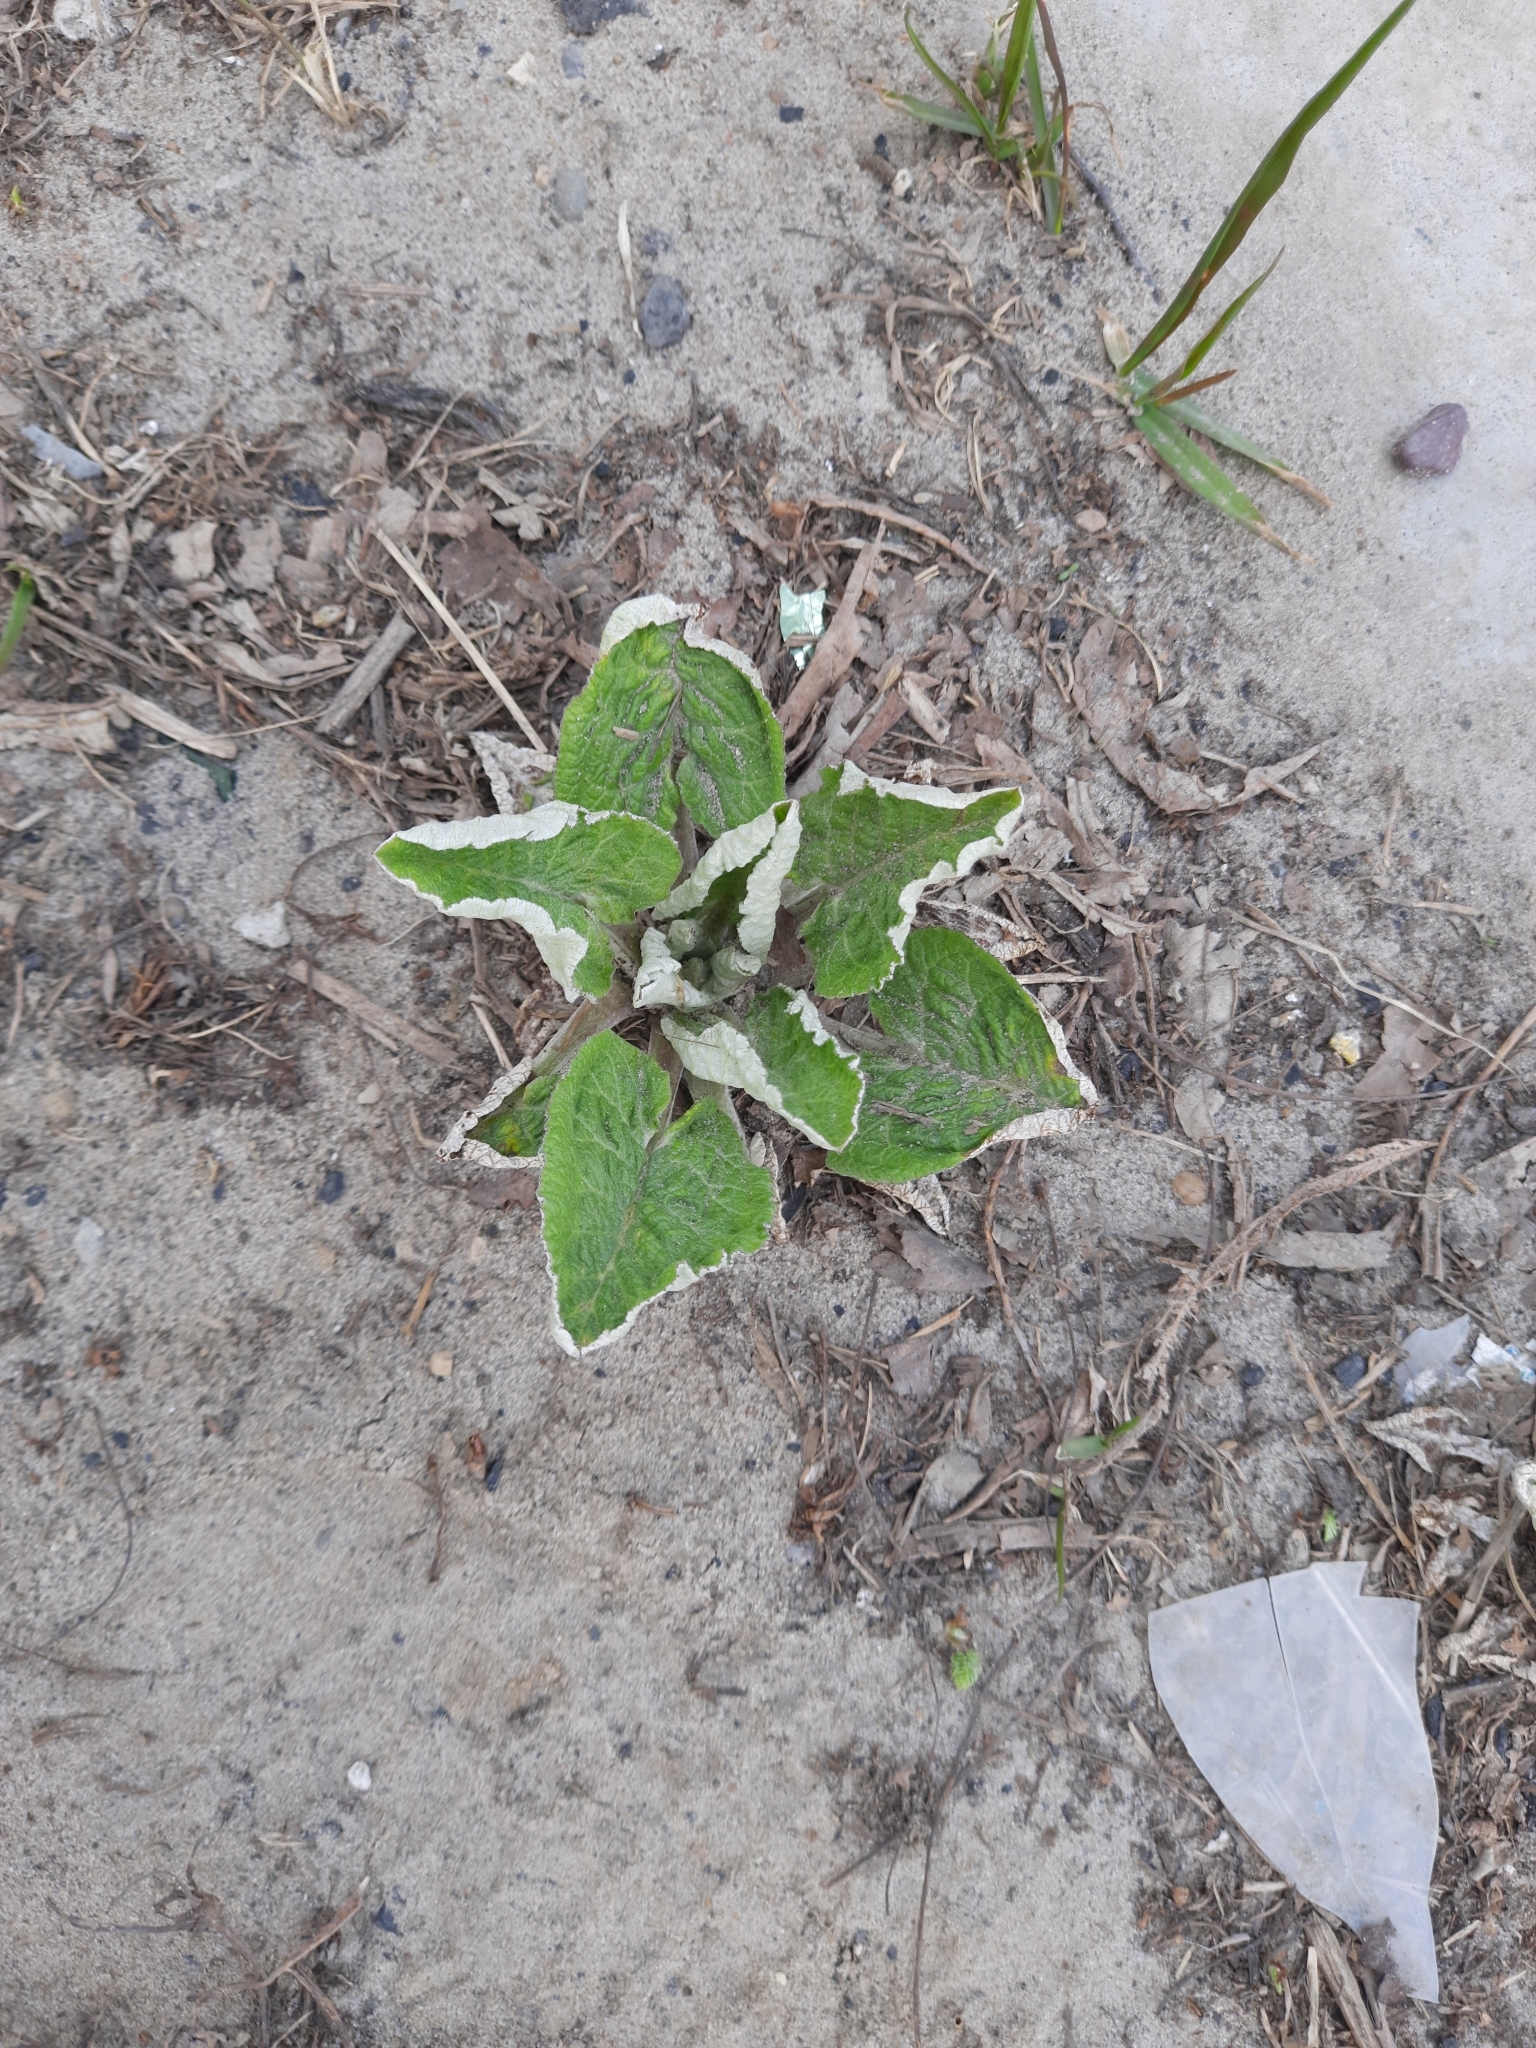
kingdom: Plantae
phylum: Tracheophyta
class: Magnoliopsida
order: Asterales
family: Asteraceae
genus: Arctium
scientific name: Arctium tomentosum
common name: Woolly burdock
